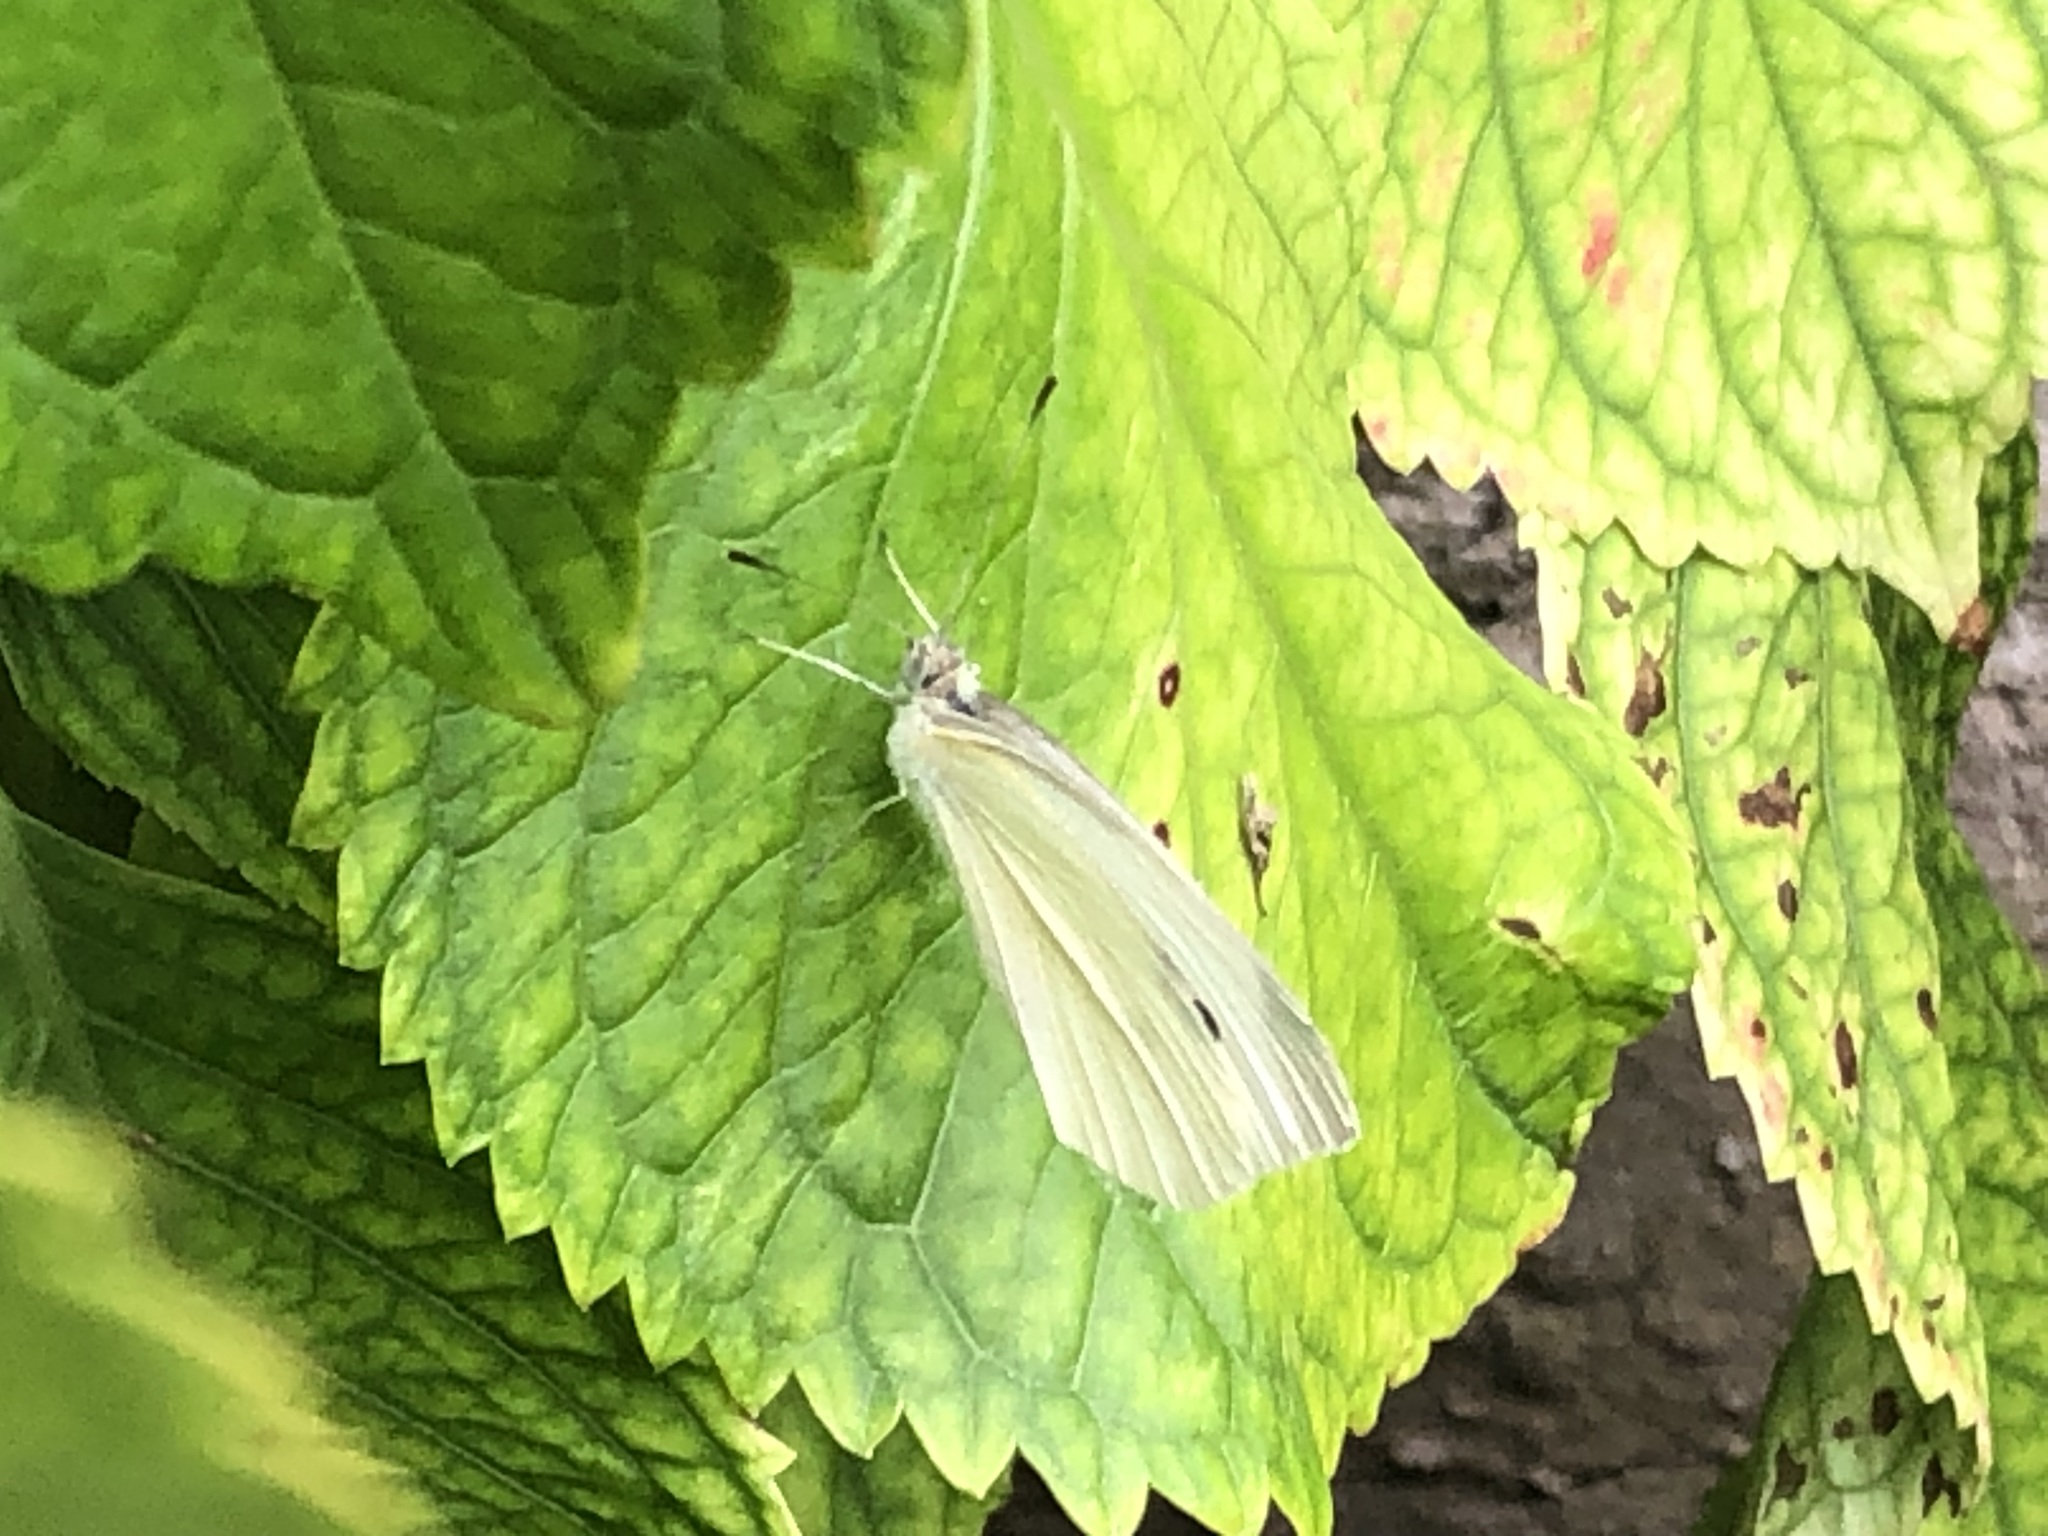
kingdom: Animalia
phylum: Arthropoda
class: Insecta
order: Lepidoptera
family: Pieridae
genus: Pieris
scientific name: Pieris rapae
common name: Small white
